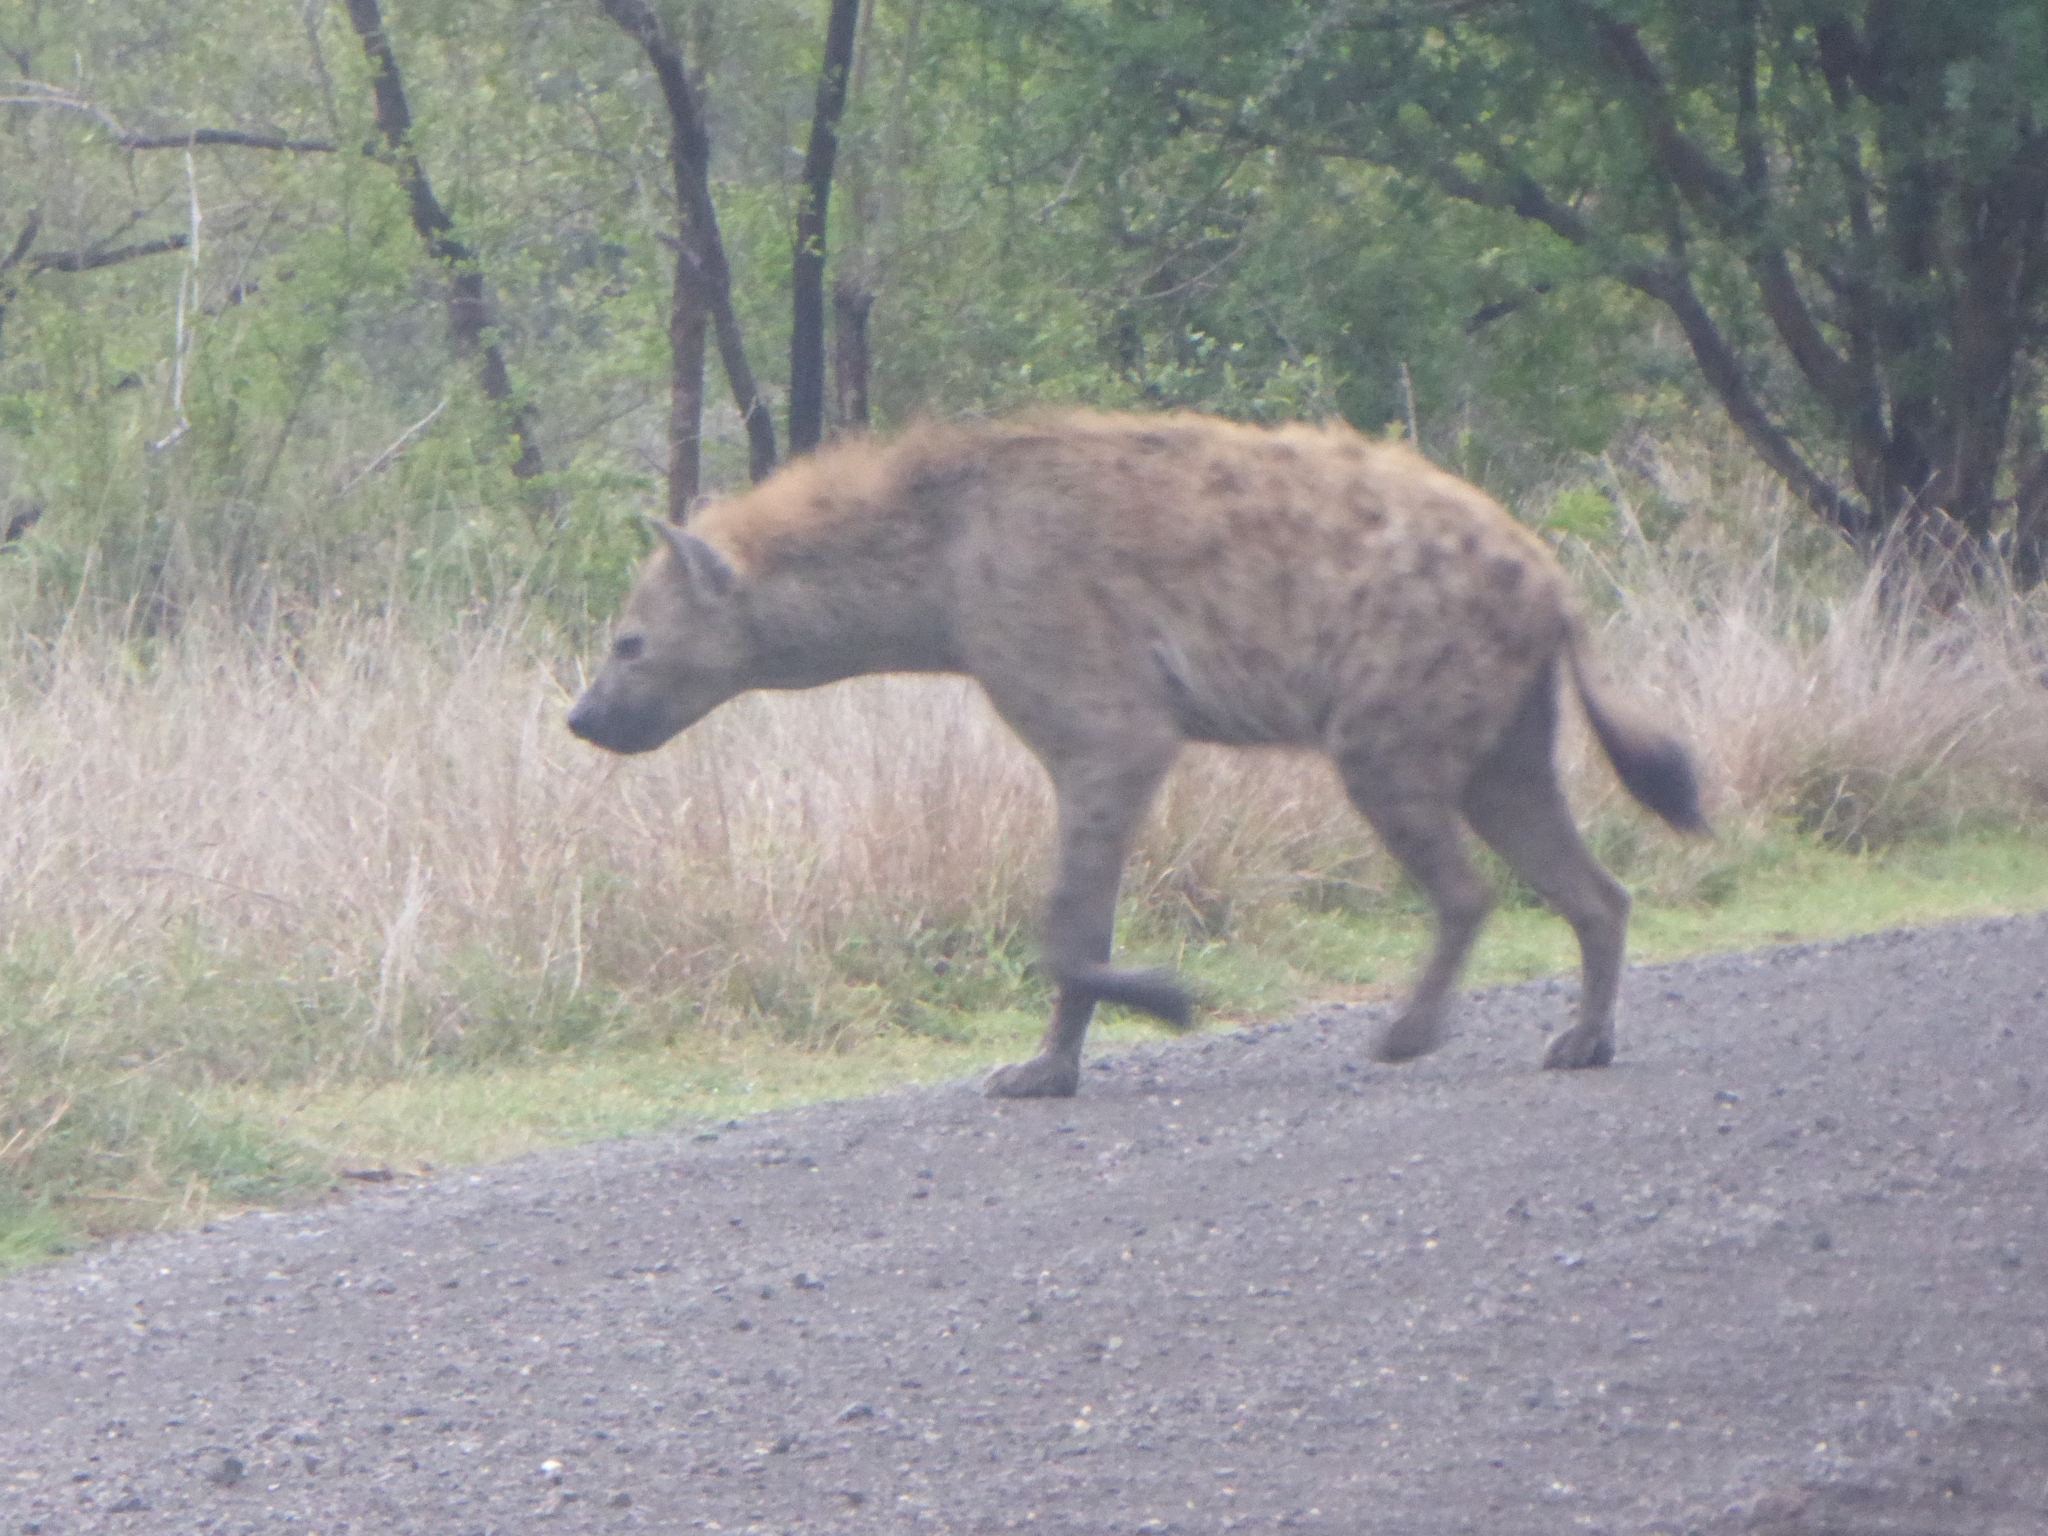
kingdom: Animalia
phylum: Chordata
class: Mammalia
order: Carnivora
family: Hyaenidae
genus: Crocuta
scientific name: Crocuta crocuta
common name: Spotted hyaena
